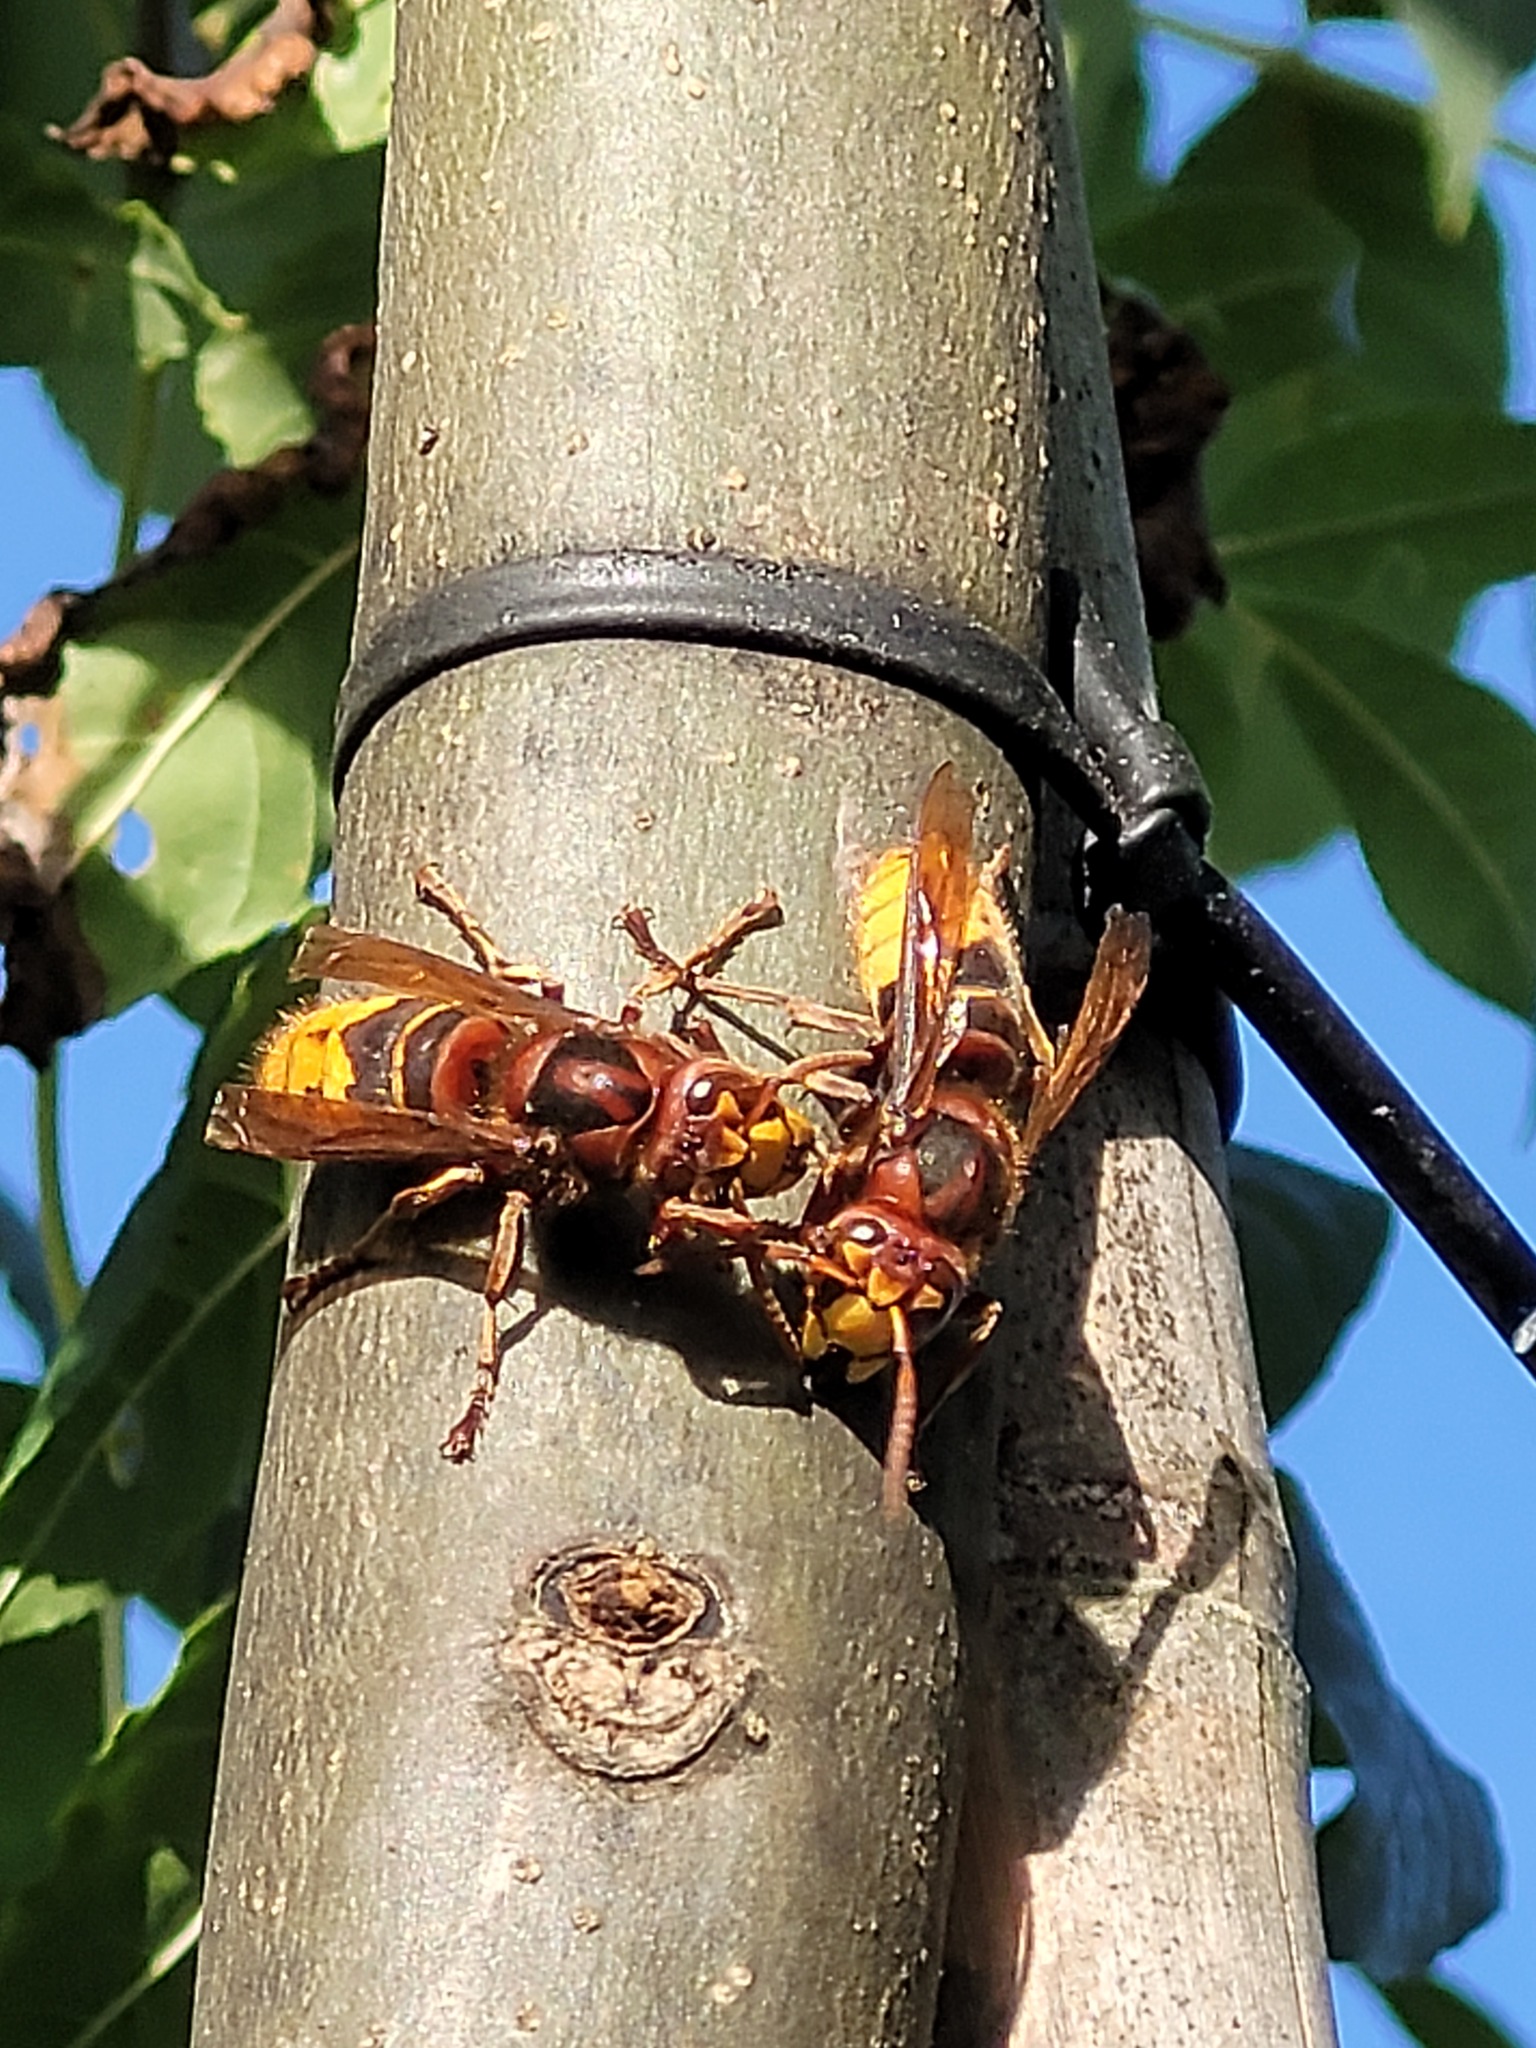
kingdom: Animalia
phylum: Arthropoda
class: Insecta
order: Hymenoptera
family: Vespidae
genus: Vespa
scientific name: Vespa crabro
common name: Hornet
